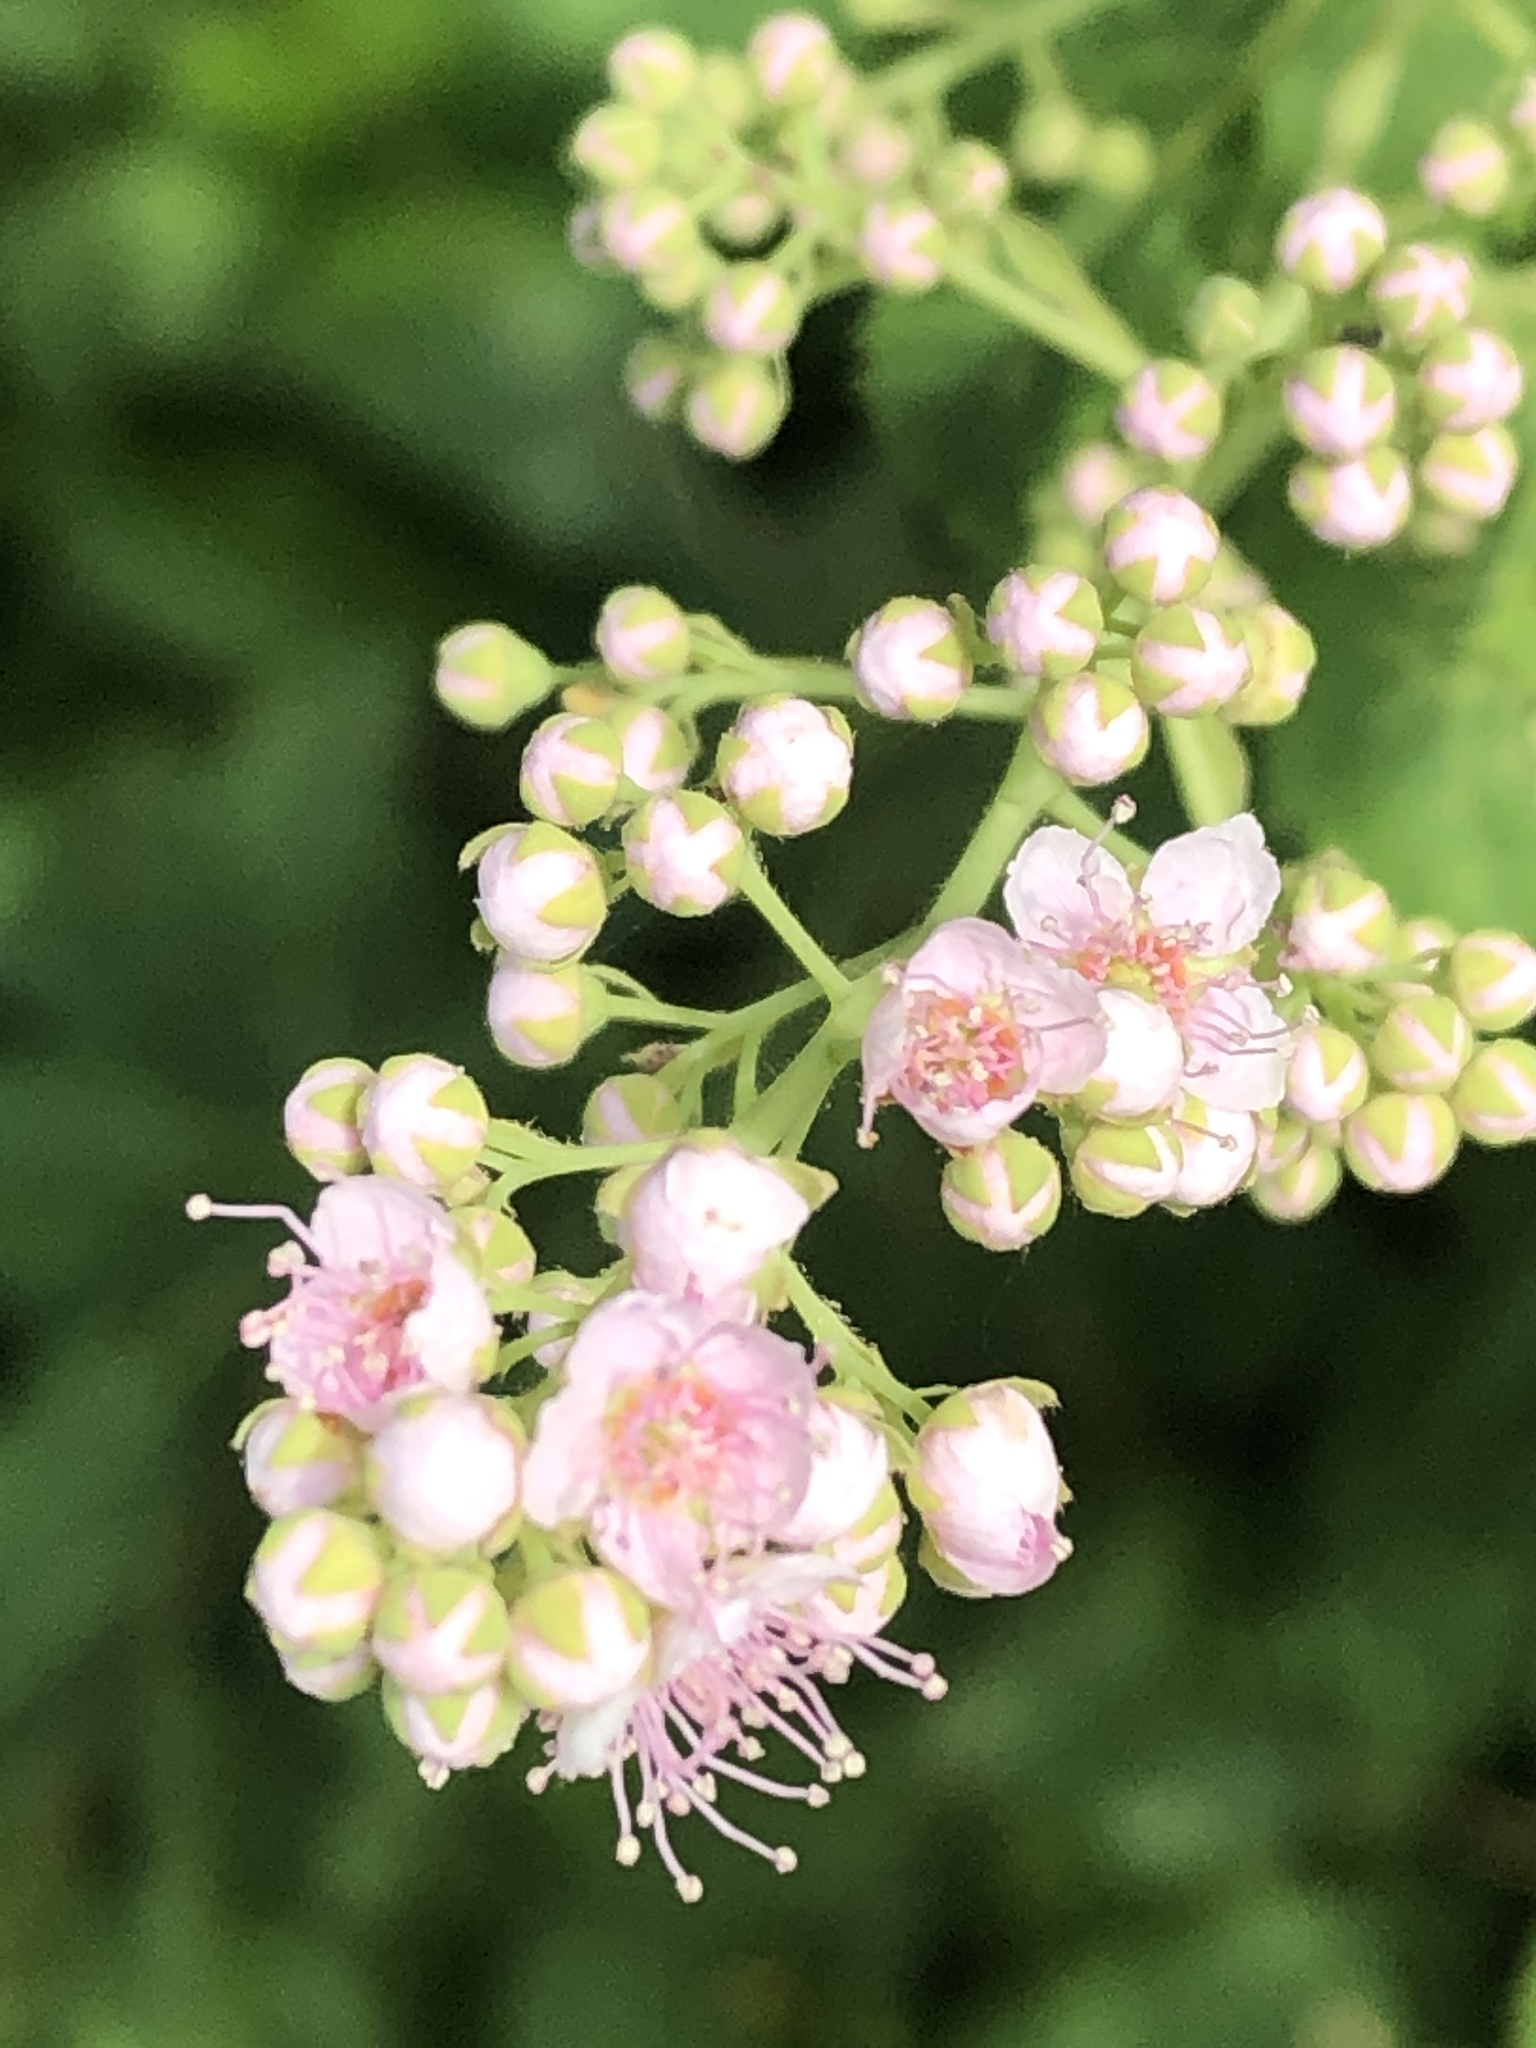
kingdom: Plantae
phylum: Tracheophyta
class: Magnoliopsida
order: Rosales
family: Rosaceae
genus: Spiraea
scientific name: Spiraea alba
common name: Pale bridewort
